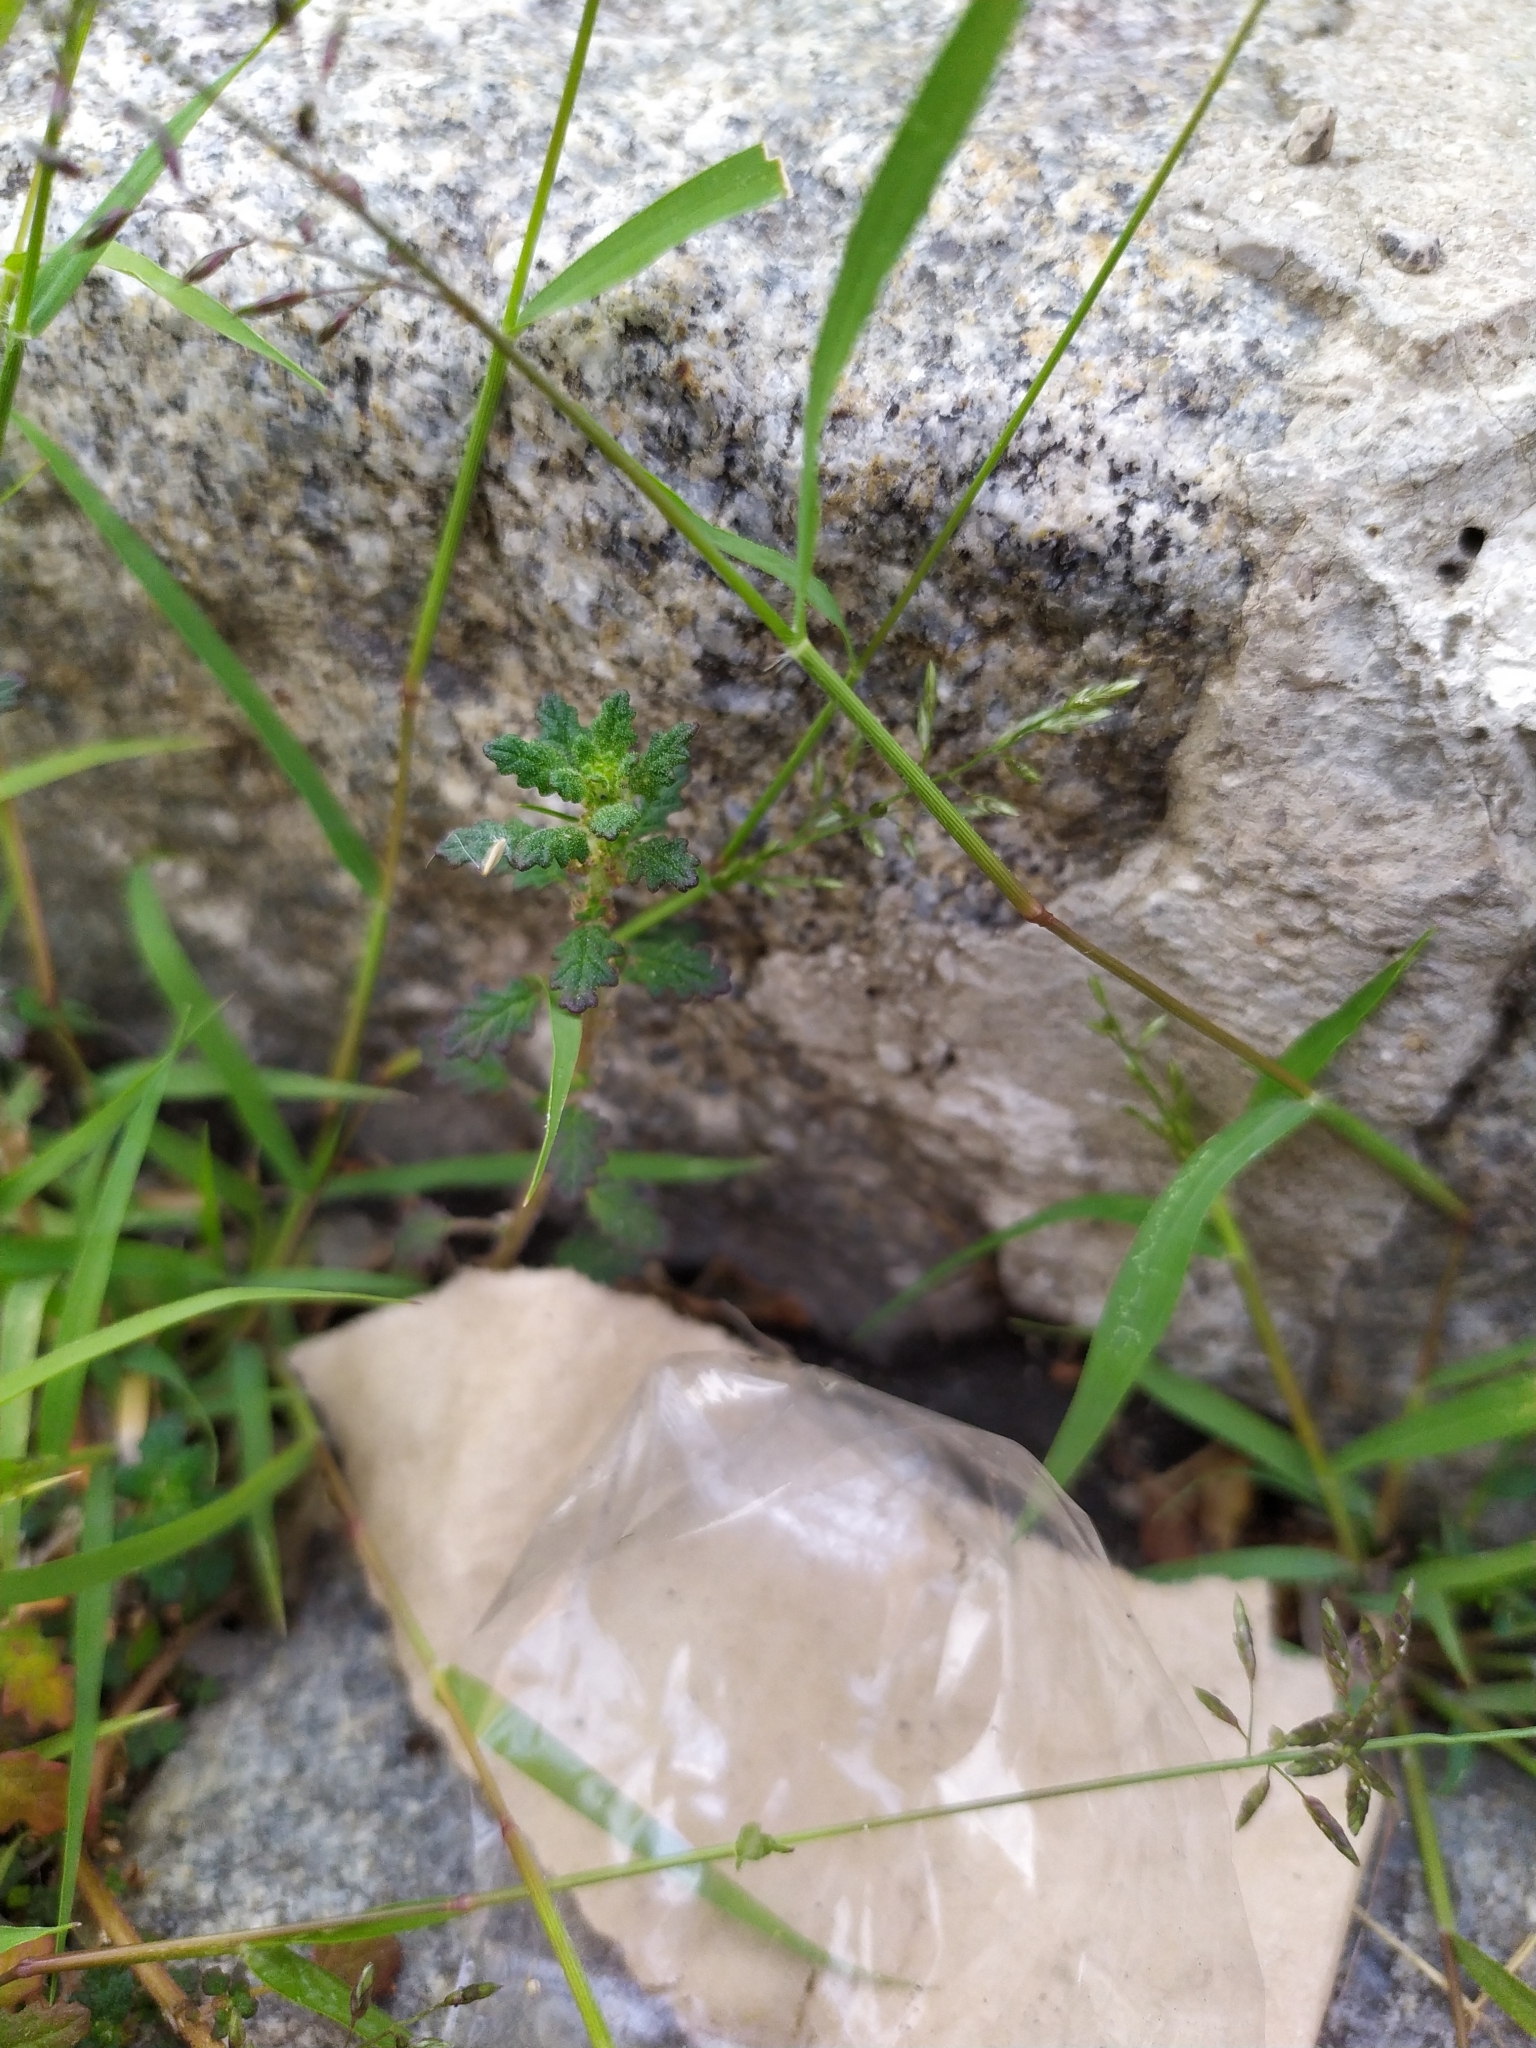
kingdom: Plantae
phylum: Tracheophyta
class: Liliopsida
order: Poales
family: Poaceae
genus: Eragrostis
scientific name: Eragrostis minor
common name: Small love-grass
